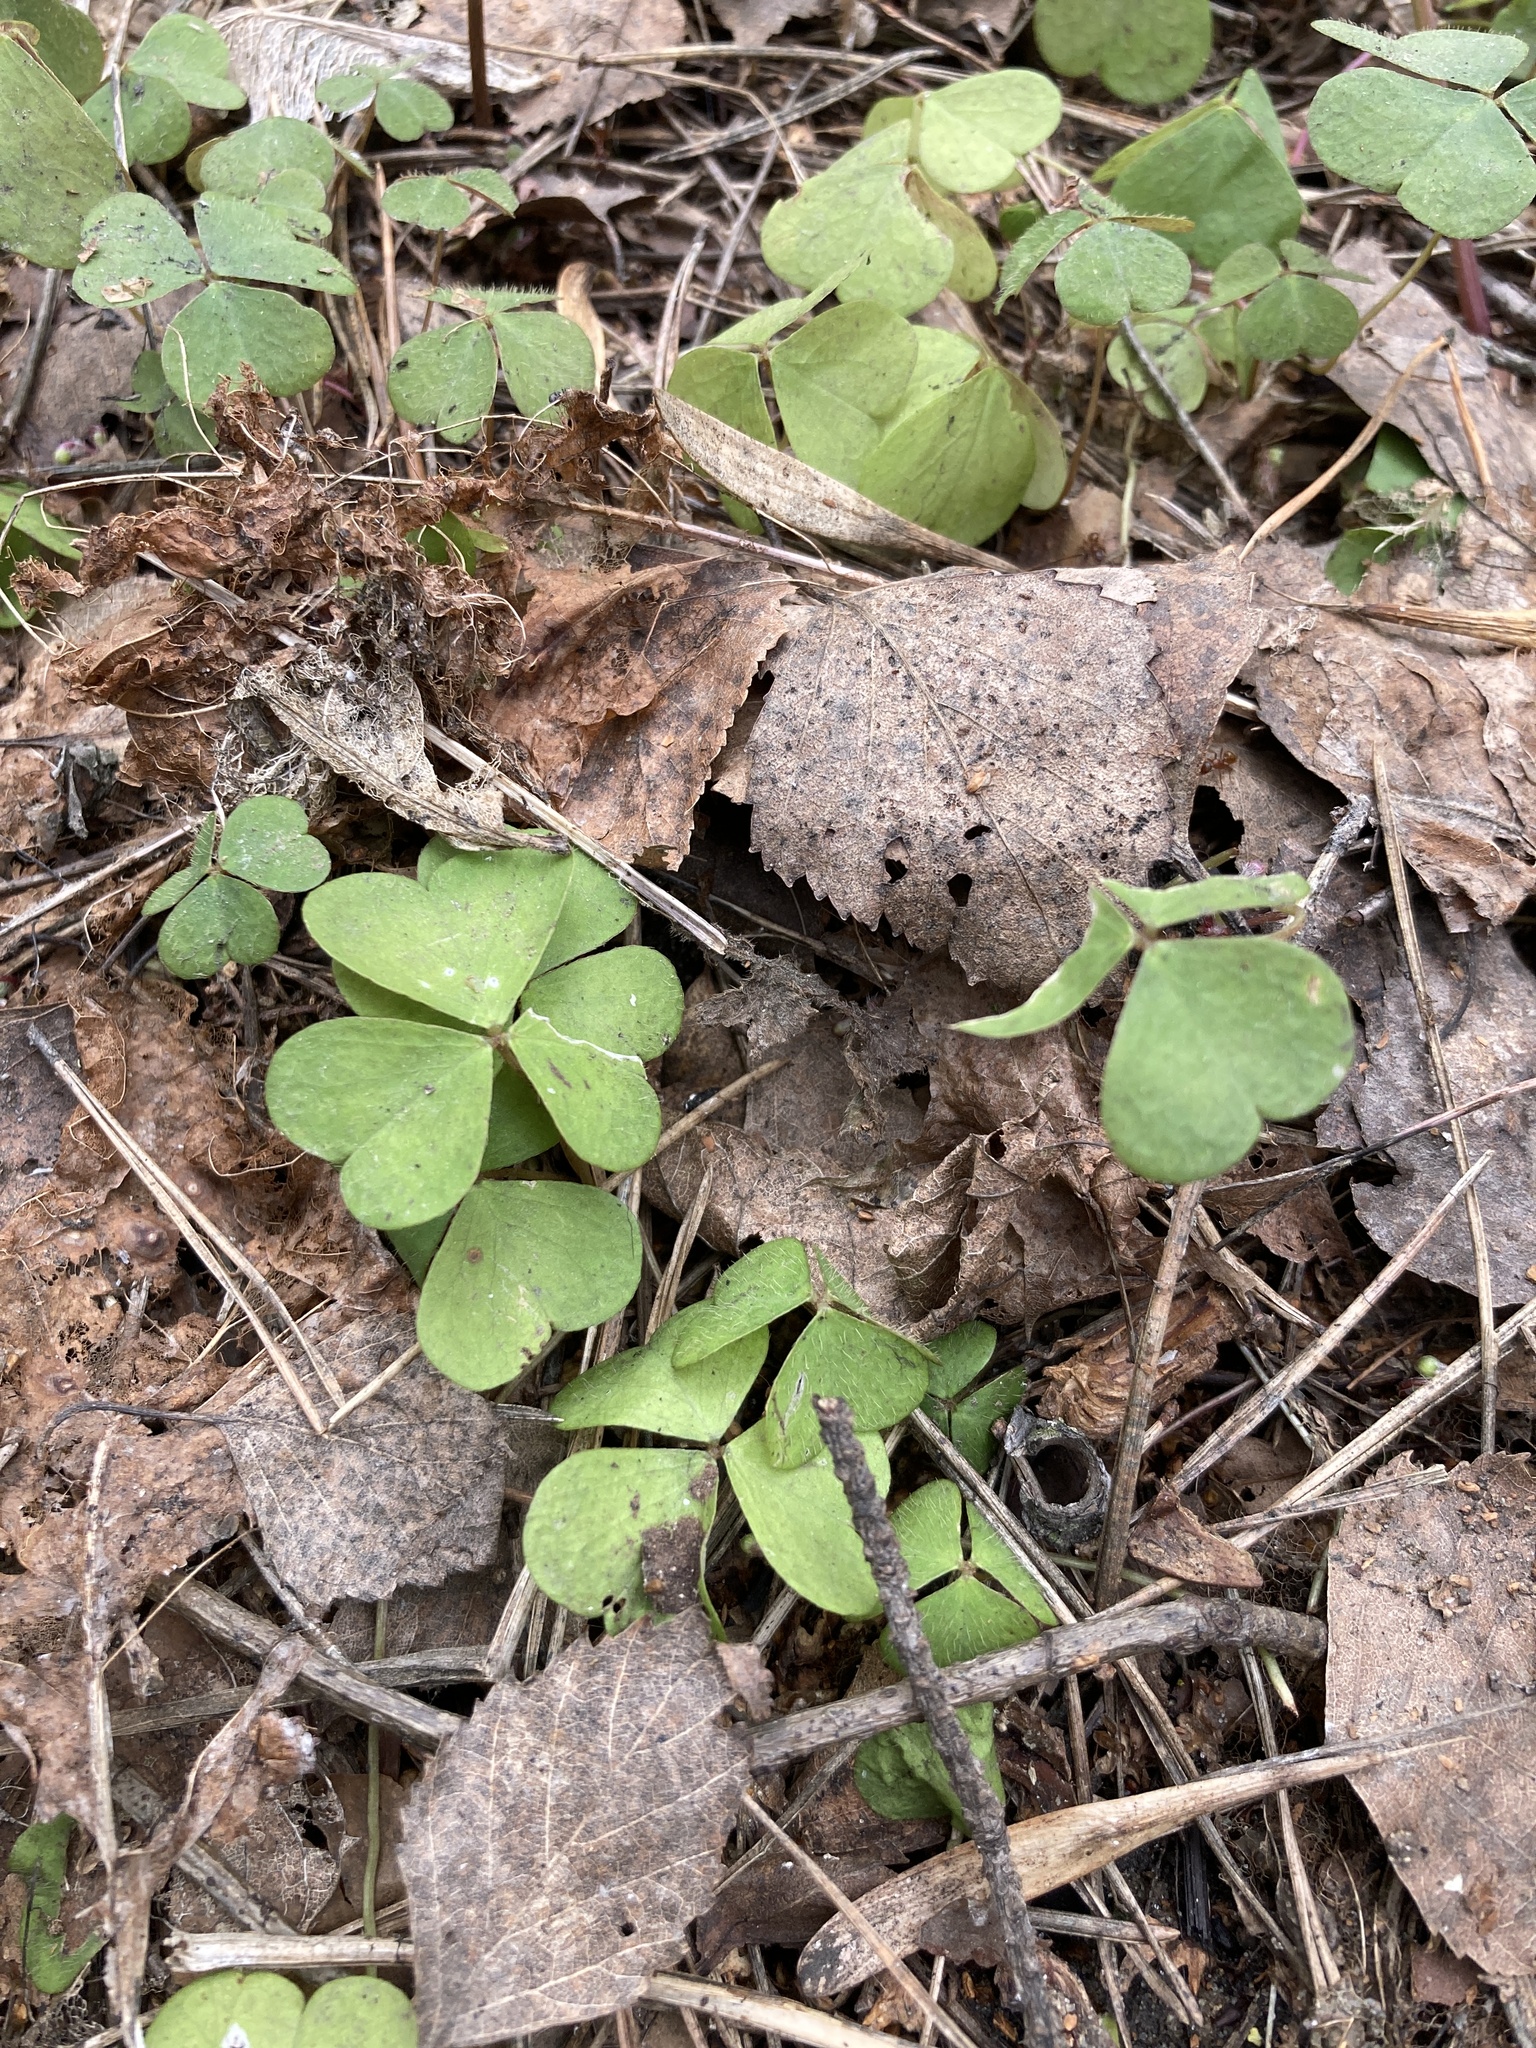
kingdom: Plantae
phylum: Tracheophyta
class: Magnoliopsida
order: Oxalidales
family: Oxalidaceae
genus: Oxalis
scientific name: Oxalis acetosella
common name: Wood-sorrel
